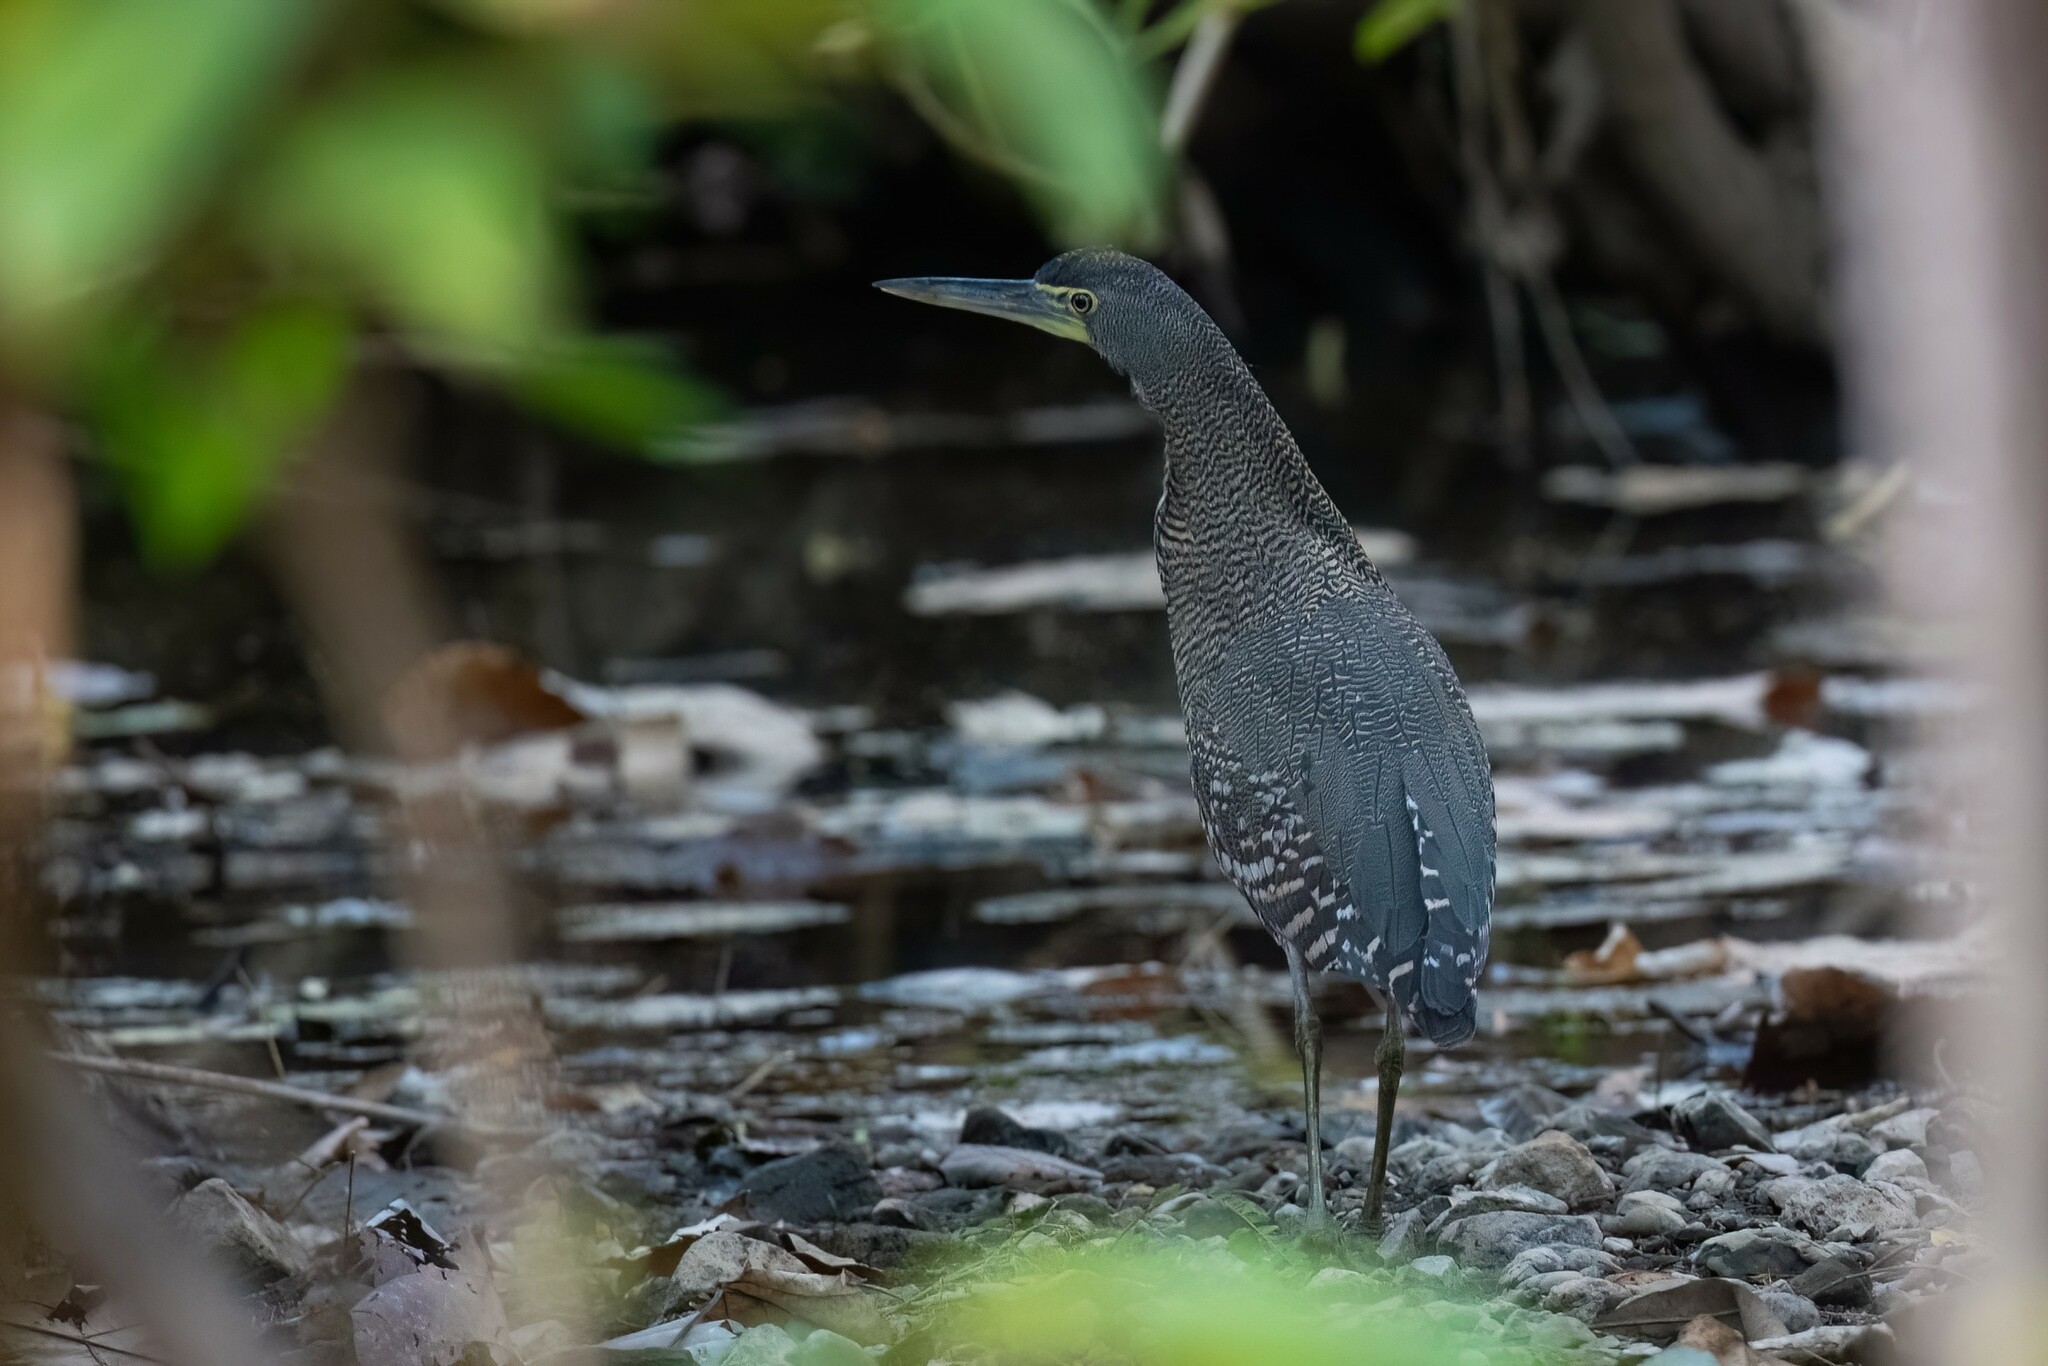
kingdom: Animalia
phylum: Chordata
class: Aves
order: Pelecaniformes
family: Ardeidae
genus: Tigrisoma
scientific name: Tigrisoma mexicanum
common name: Bare-throated tiger-heron
